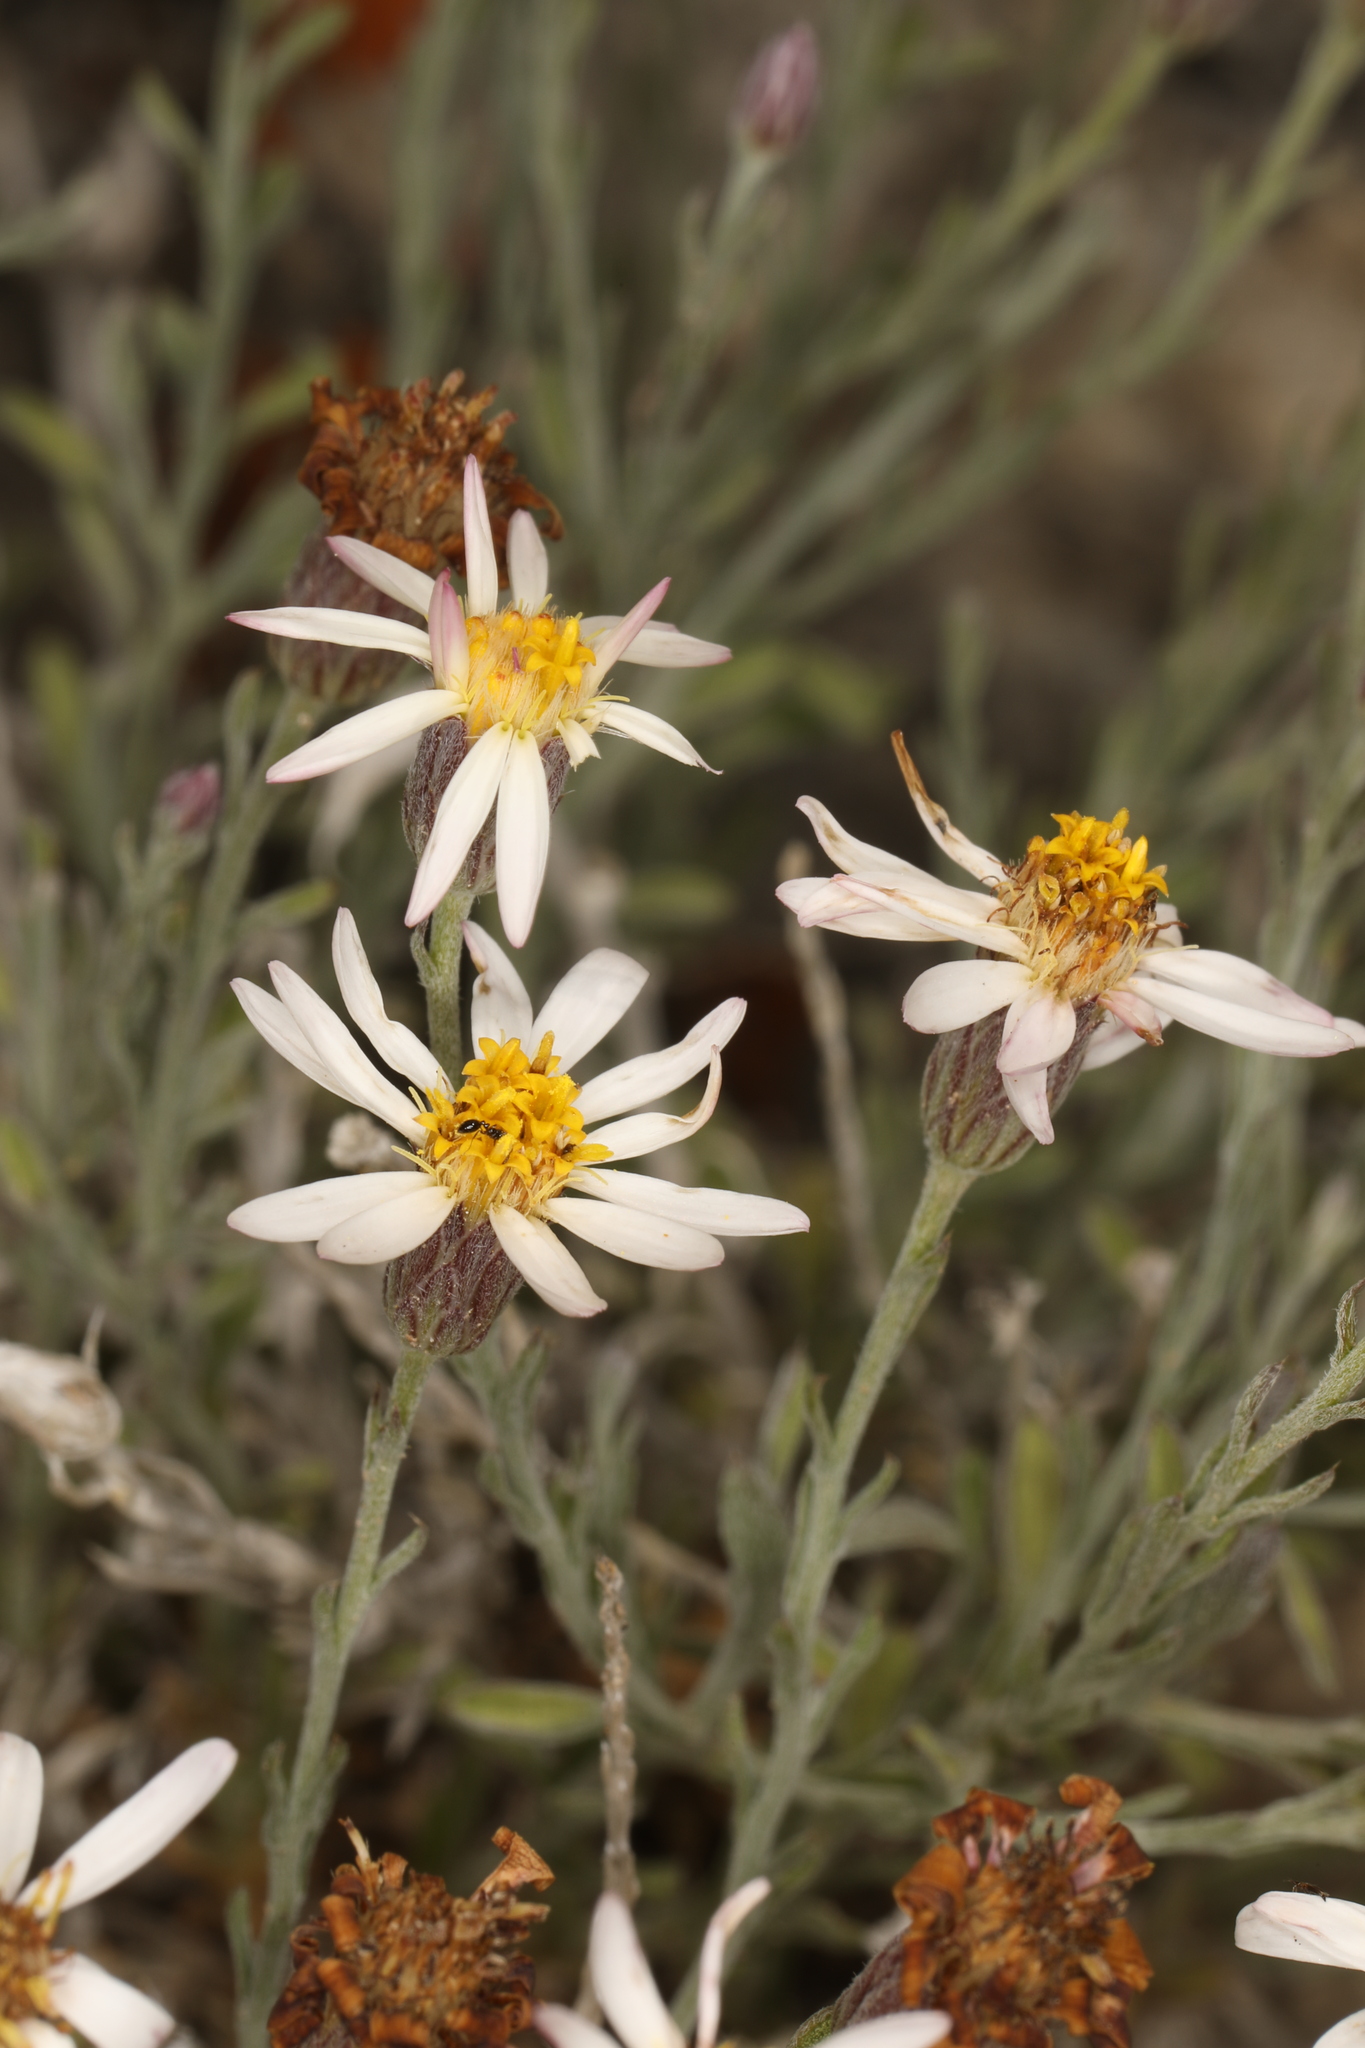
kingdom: Plantae
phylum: Tracheophyta
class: Magnoliopsida
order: Asterales
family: Asteraceae
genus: Chaetopappa
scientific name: Chaetopappa ericoides
